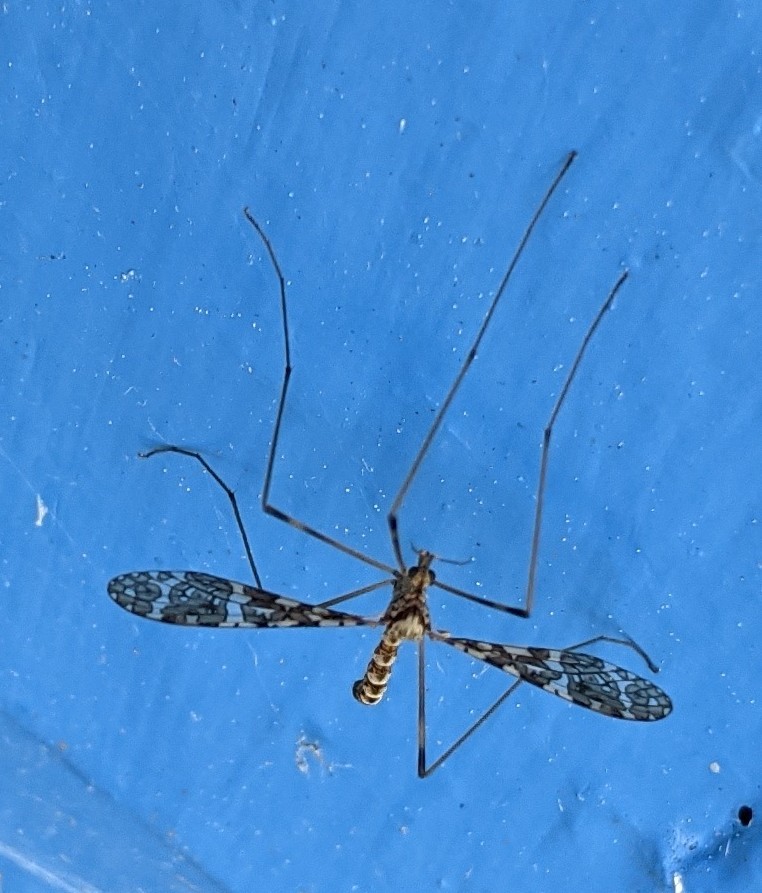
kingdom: Animalia
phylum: Arthropoda
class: Insecta
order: Diptera
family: Limoniidae
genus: Epiphragma
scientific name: Epiphragma fasciapenne
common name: Band-winged crane fly
